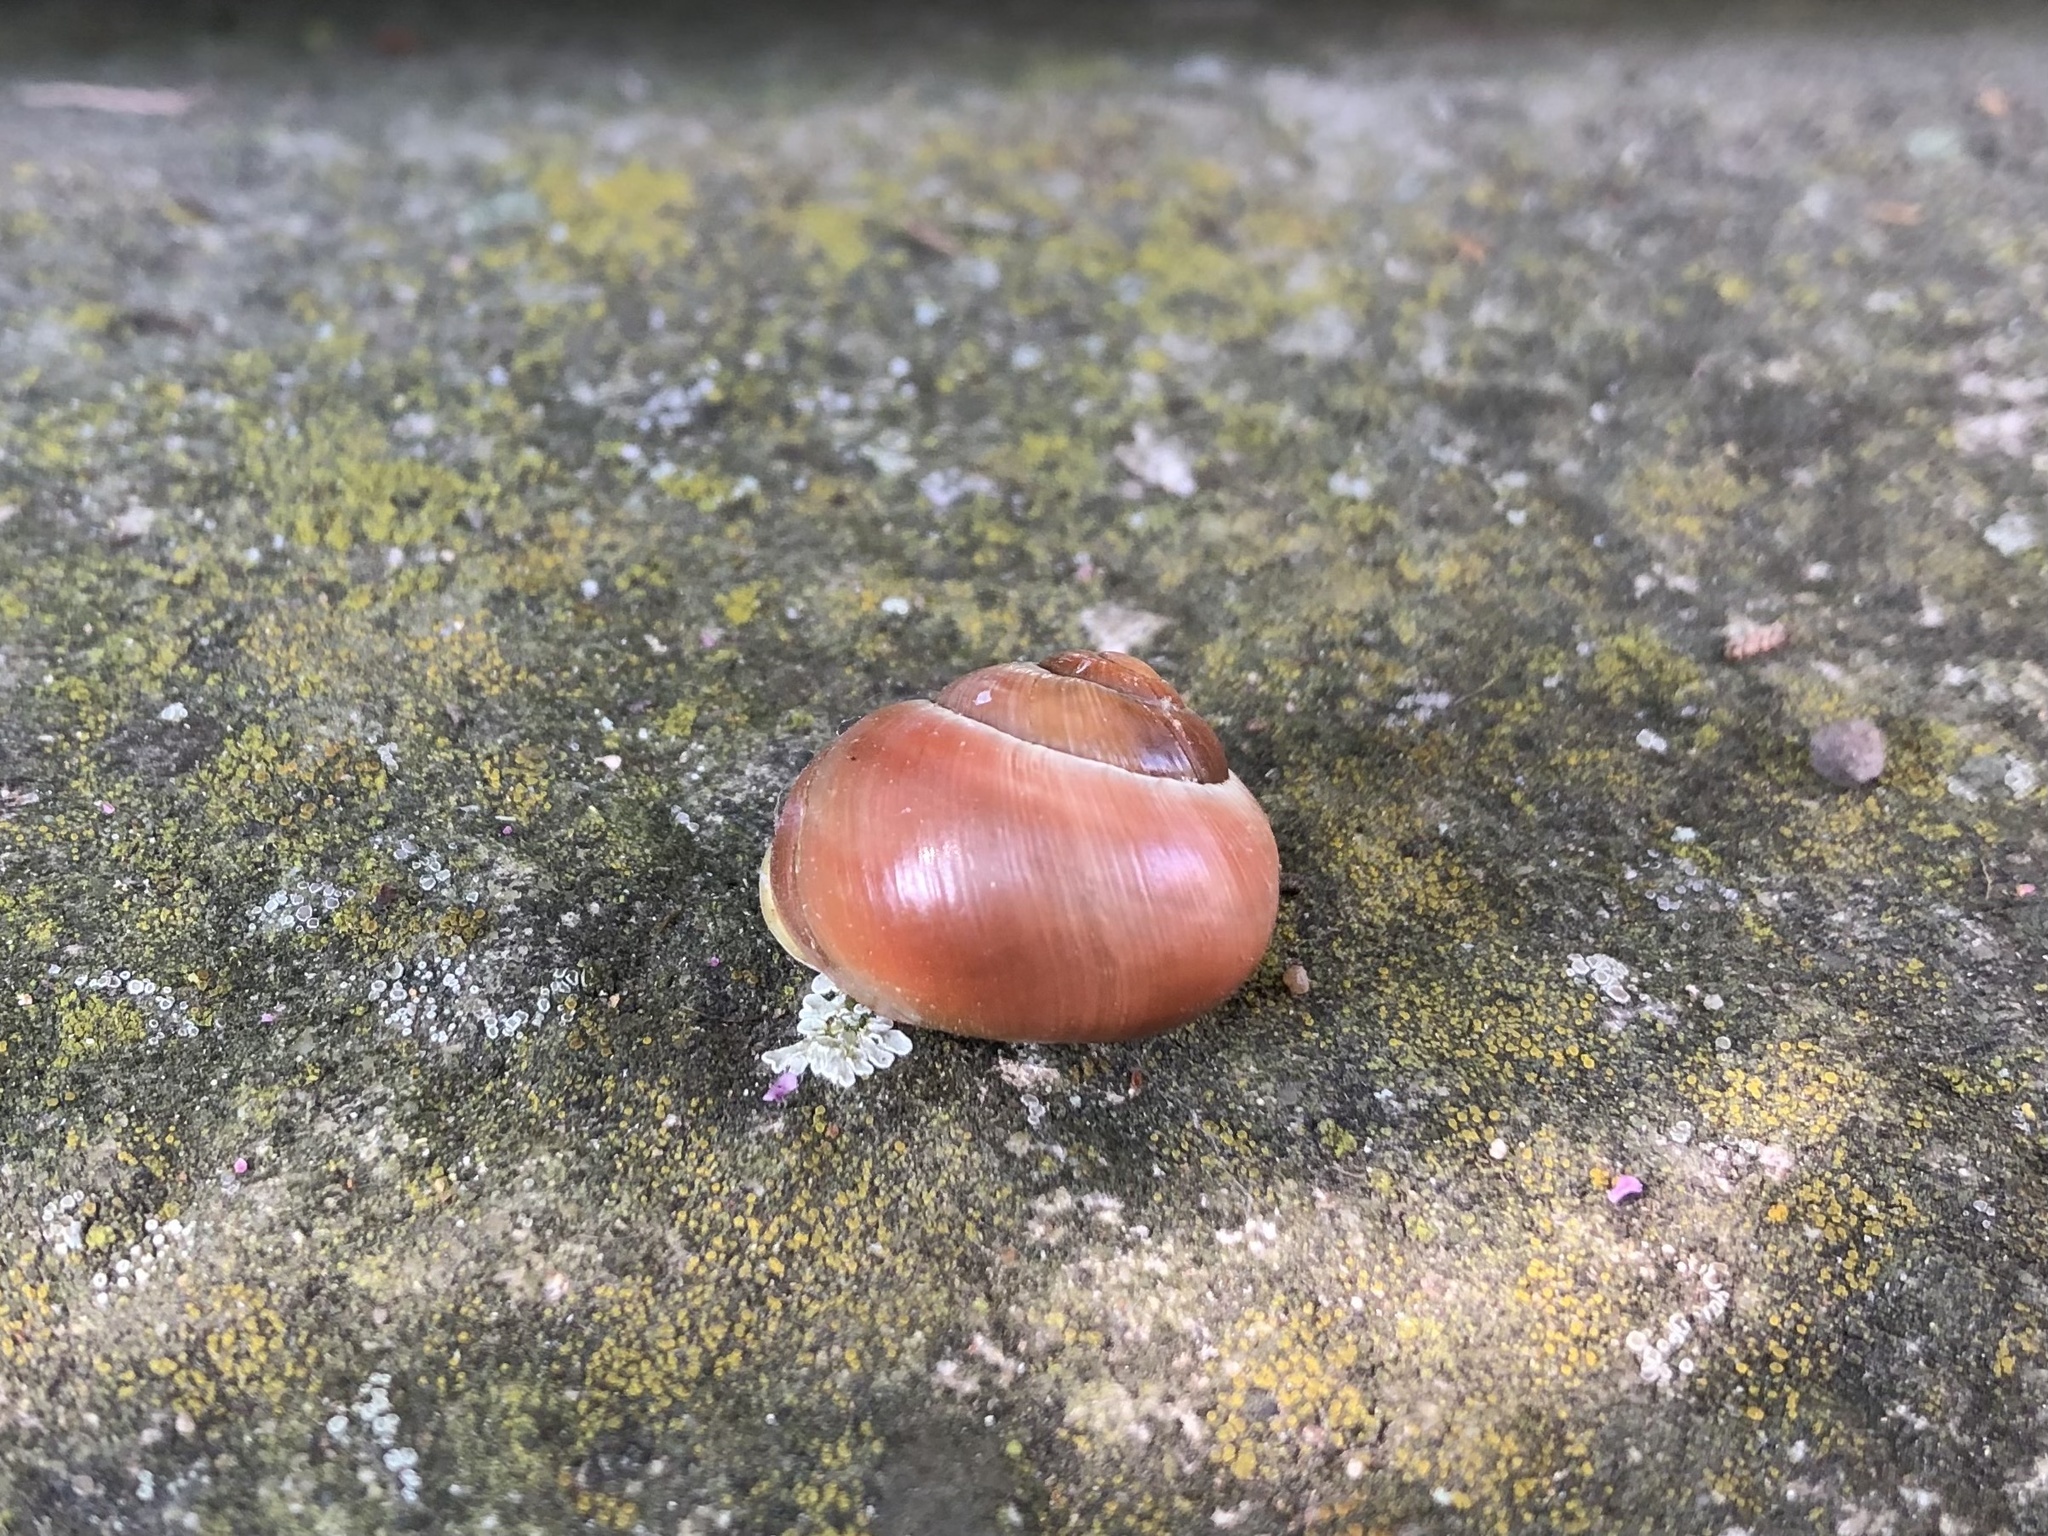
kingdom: Animalia
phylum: Mollusca
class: Gastropoda
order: Stylommatophora
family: Helicidae
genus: Cepaea
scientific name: Cepaea hortensis
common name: White-lip gardensnail
